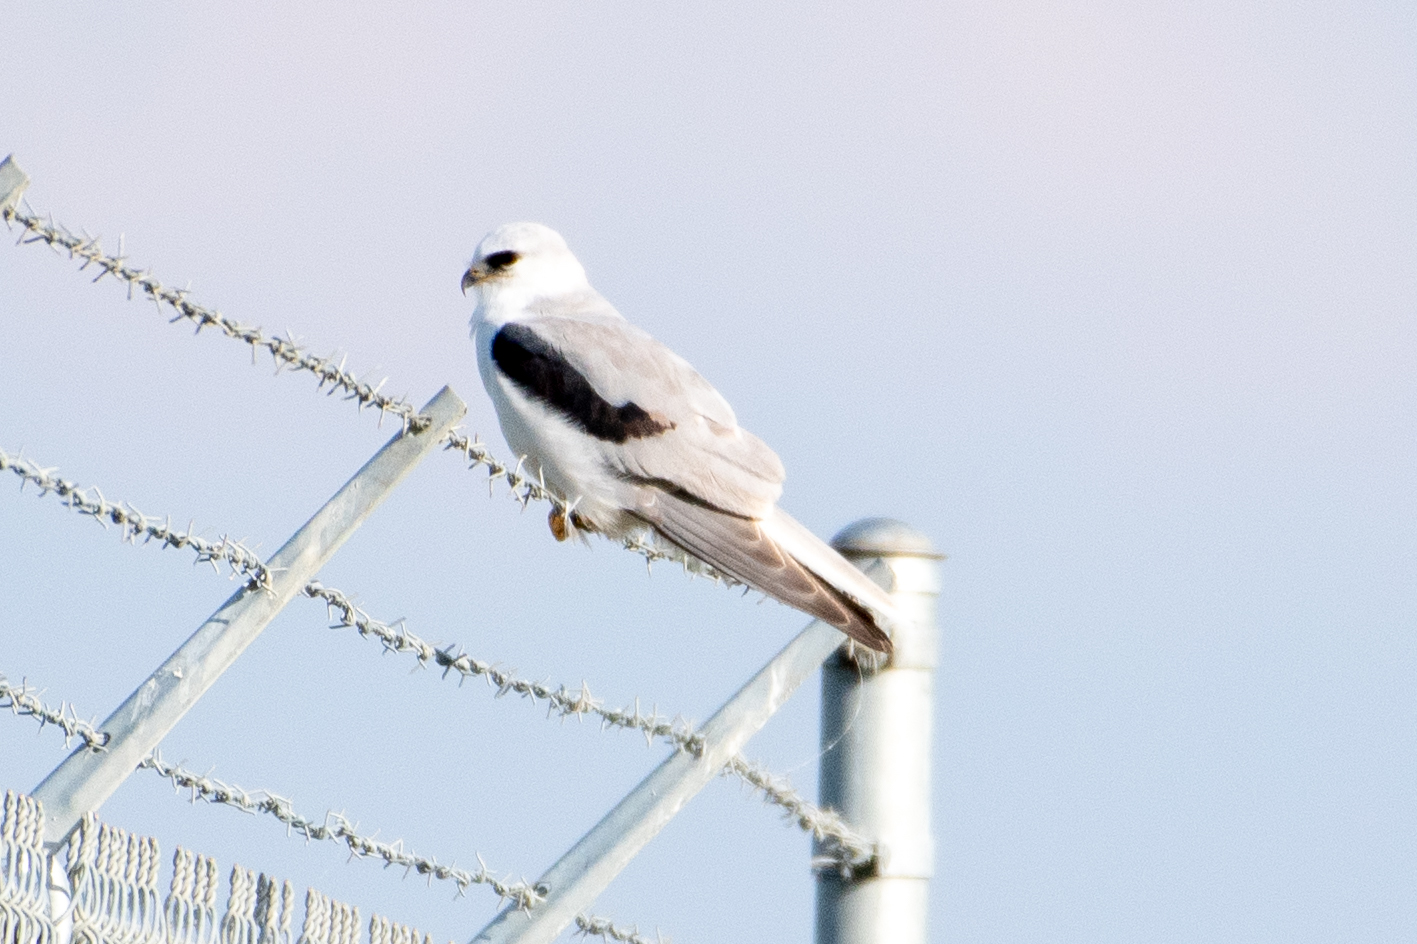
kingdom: Animalia
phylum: Chordata
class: Aves
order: Accipitriformes
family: Accipitridae
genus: Elanus
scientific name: Elanus leucurus
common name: White-tailed kite
